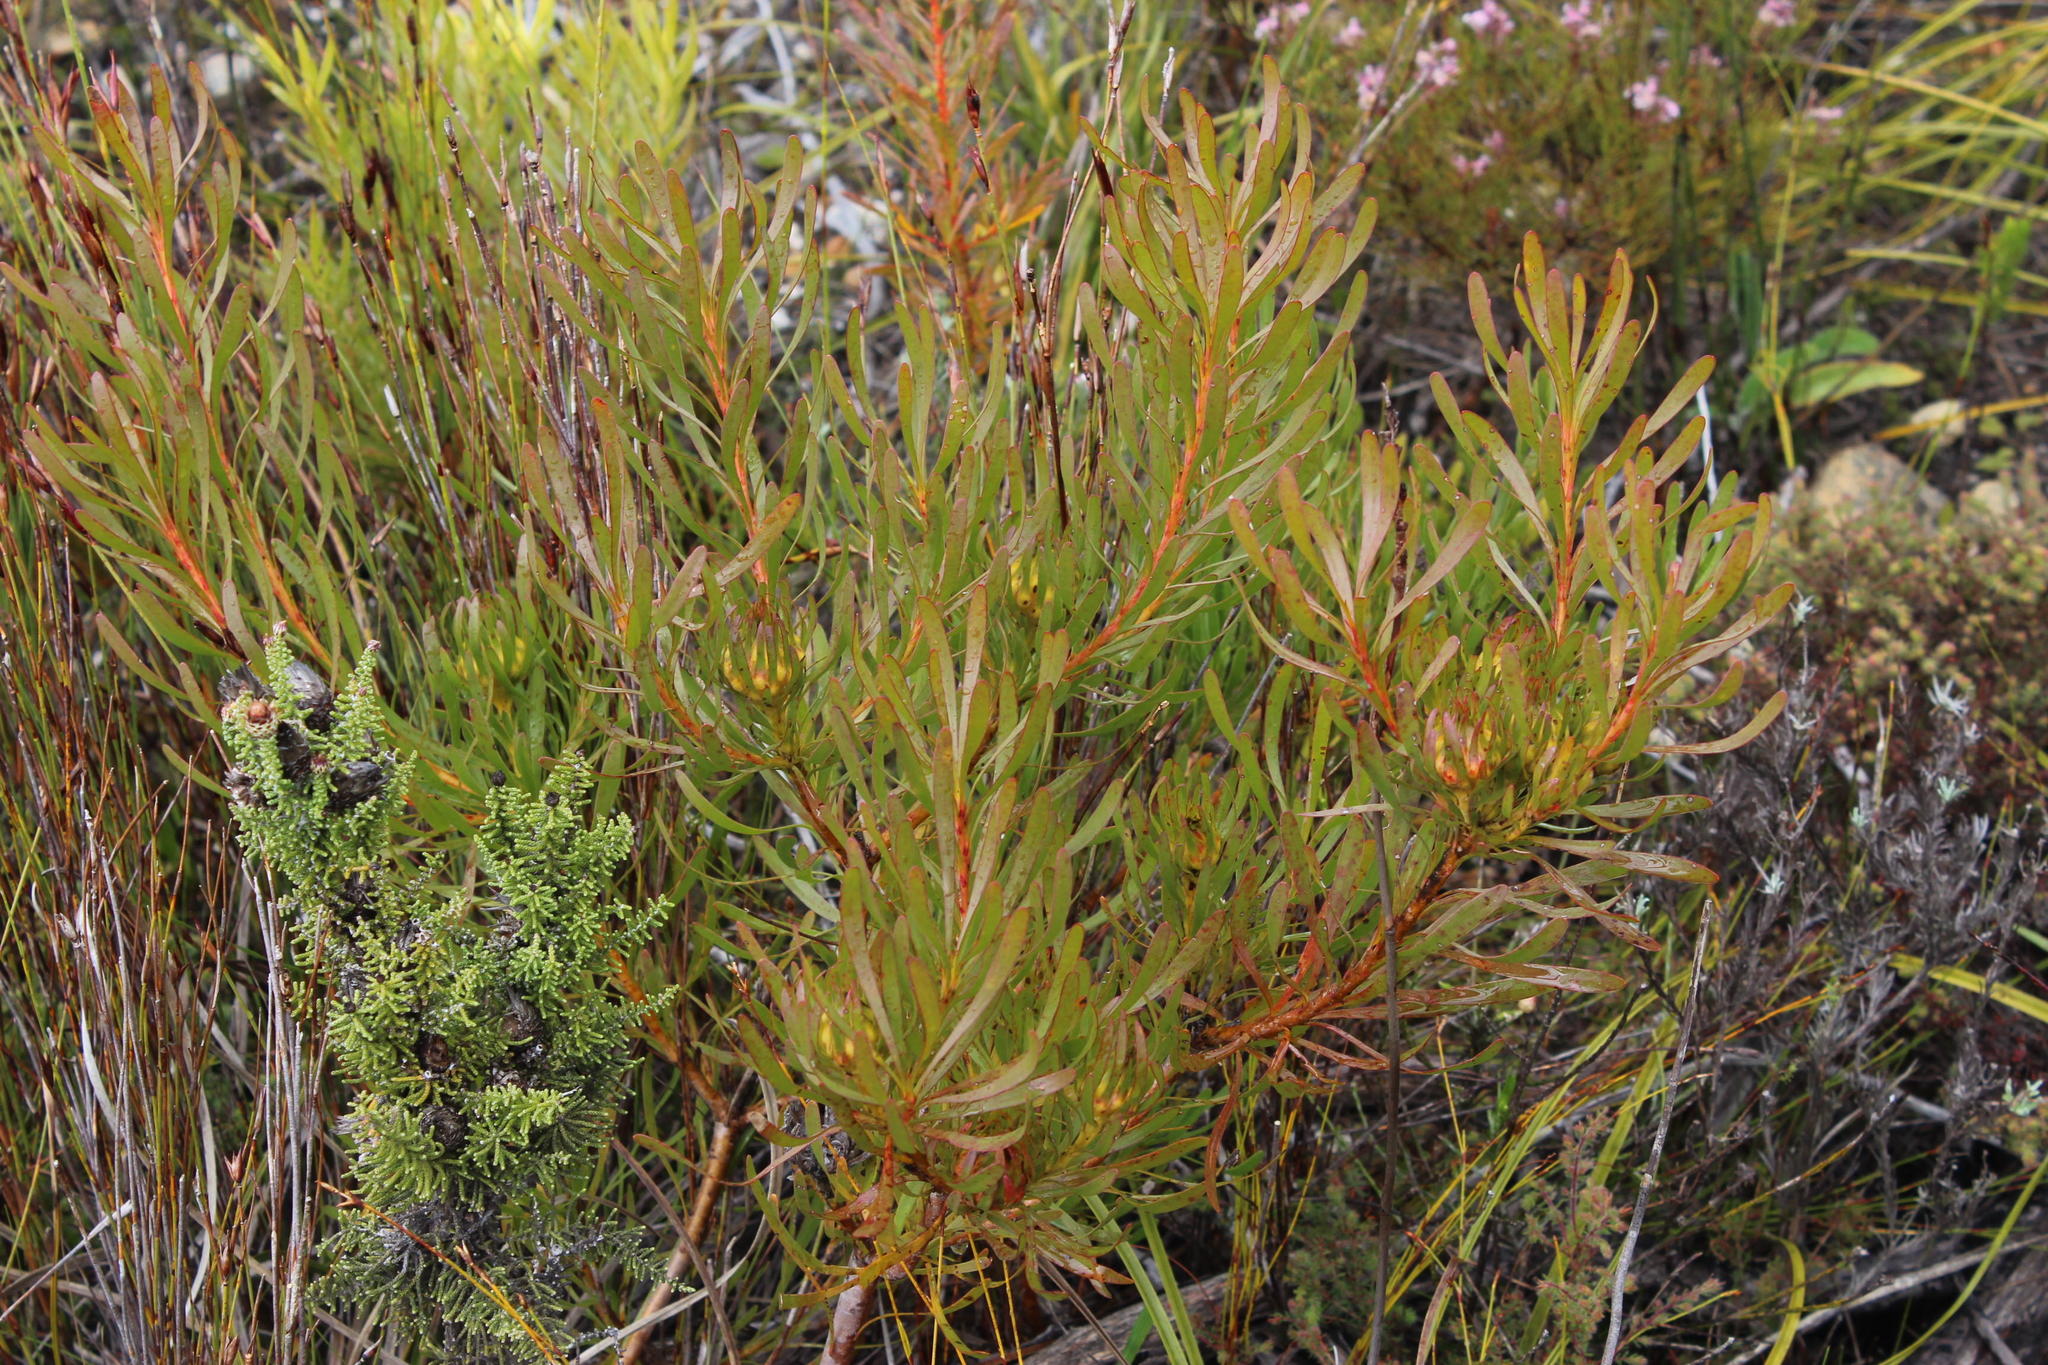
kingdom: Plantae
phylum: Tracheophyta
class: Magnoliopsida
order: Proteales
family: Proteaceae
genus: Aulax
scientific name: Aulax umbellata
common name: Broad-leaf featherbush
